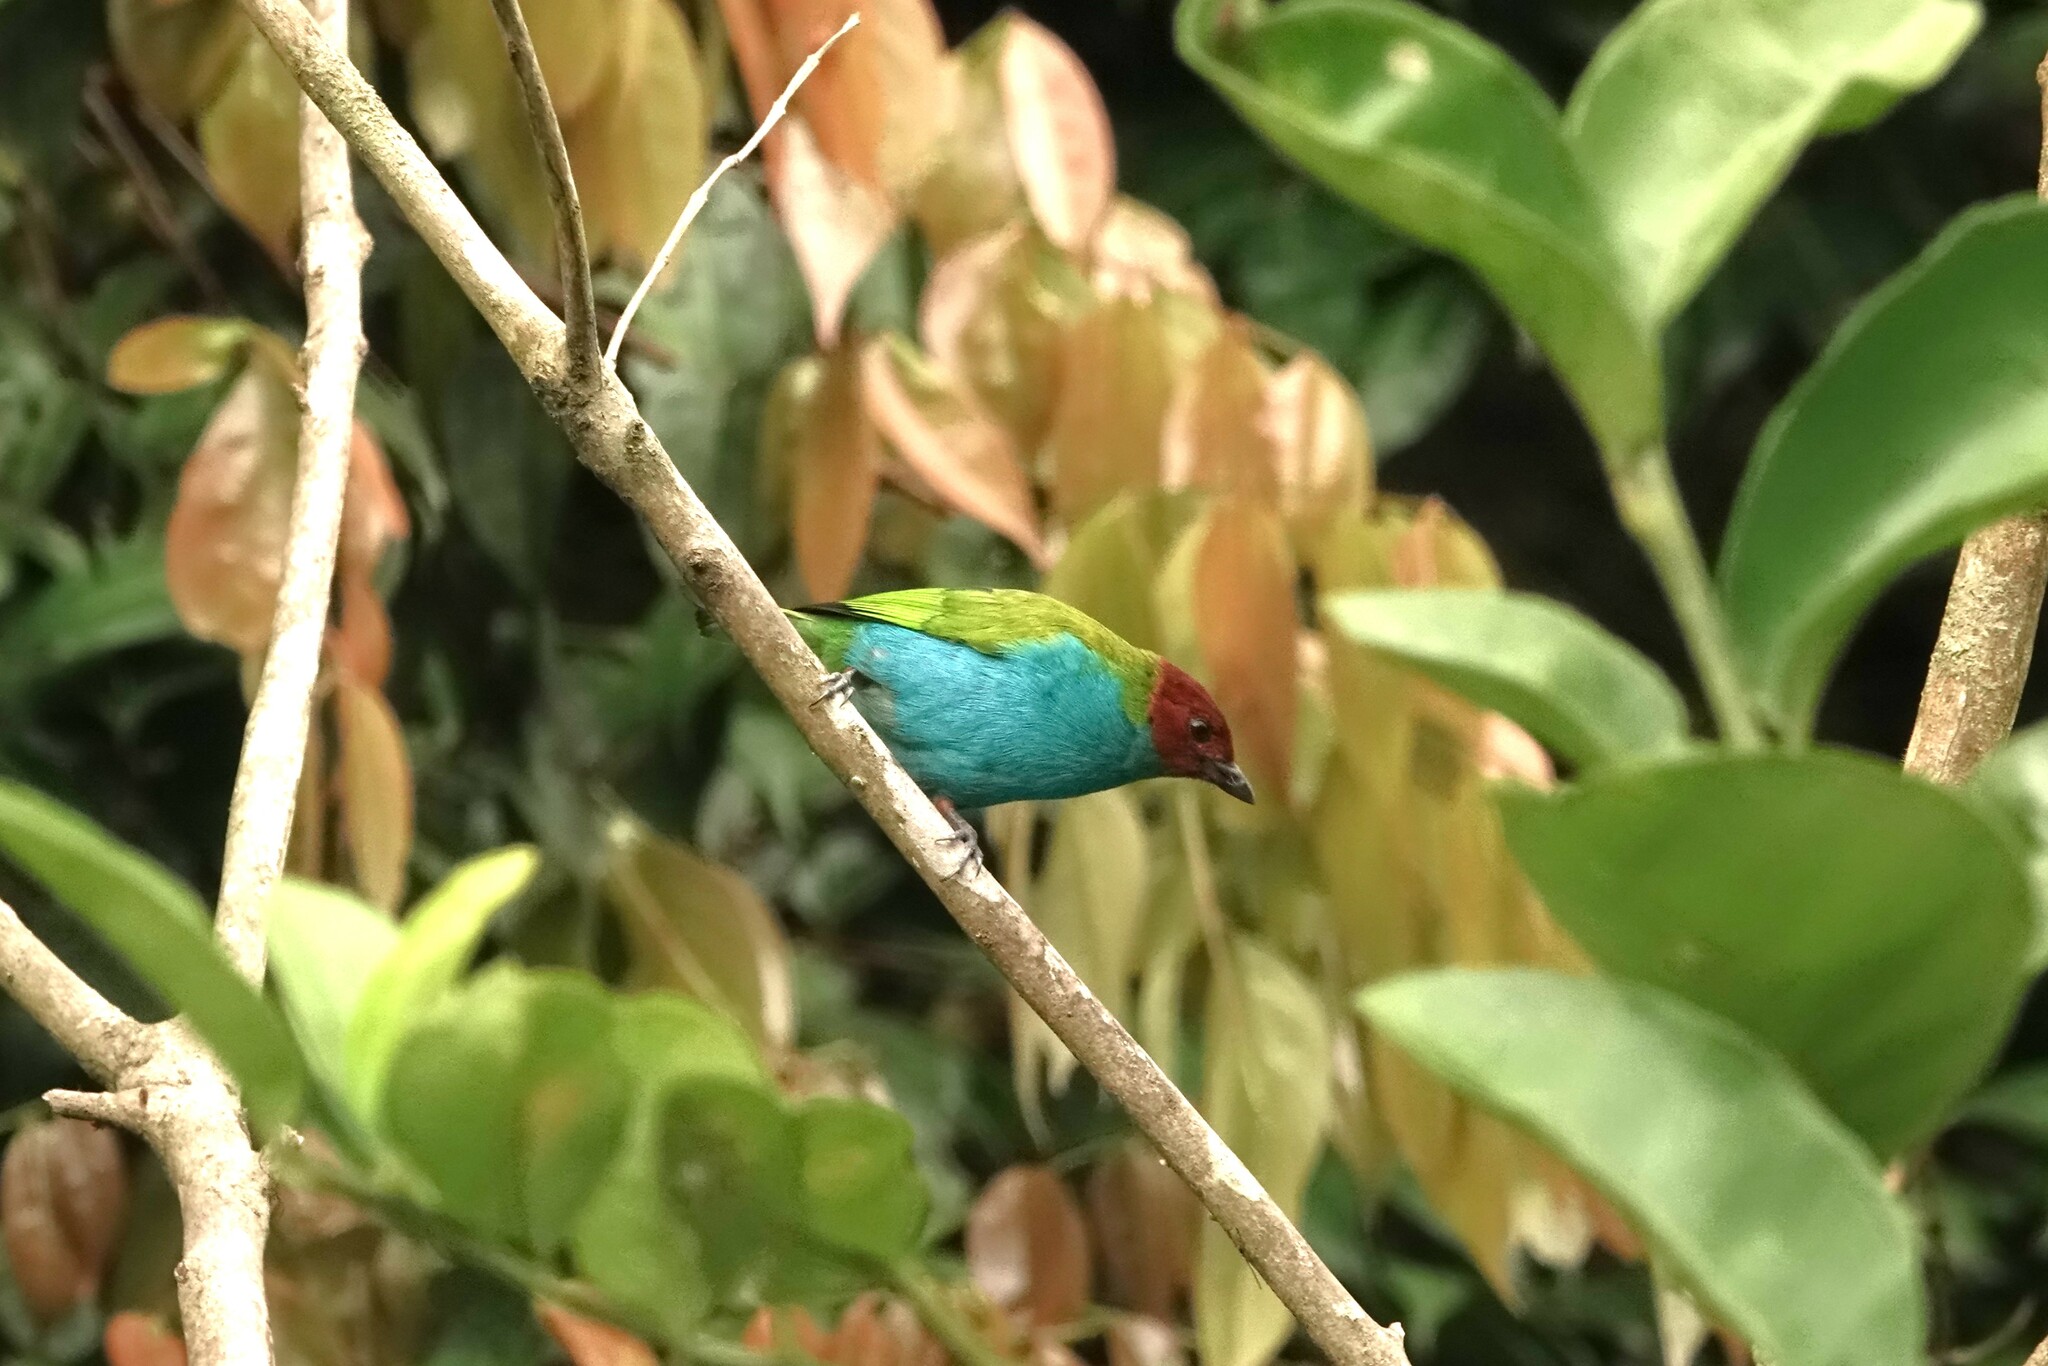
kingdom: Animalia
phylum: Chordata
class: Aves
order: Passeriformes
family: Thraupidae
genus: Tangara
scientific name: Tangara gyrola
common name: Bay-headed tanager
